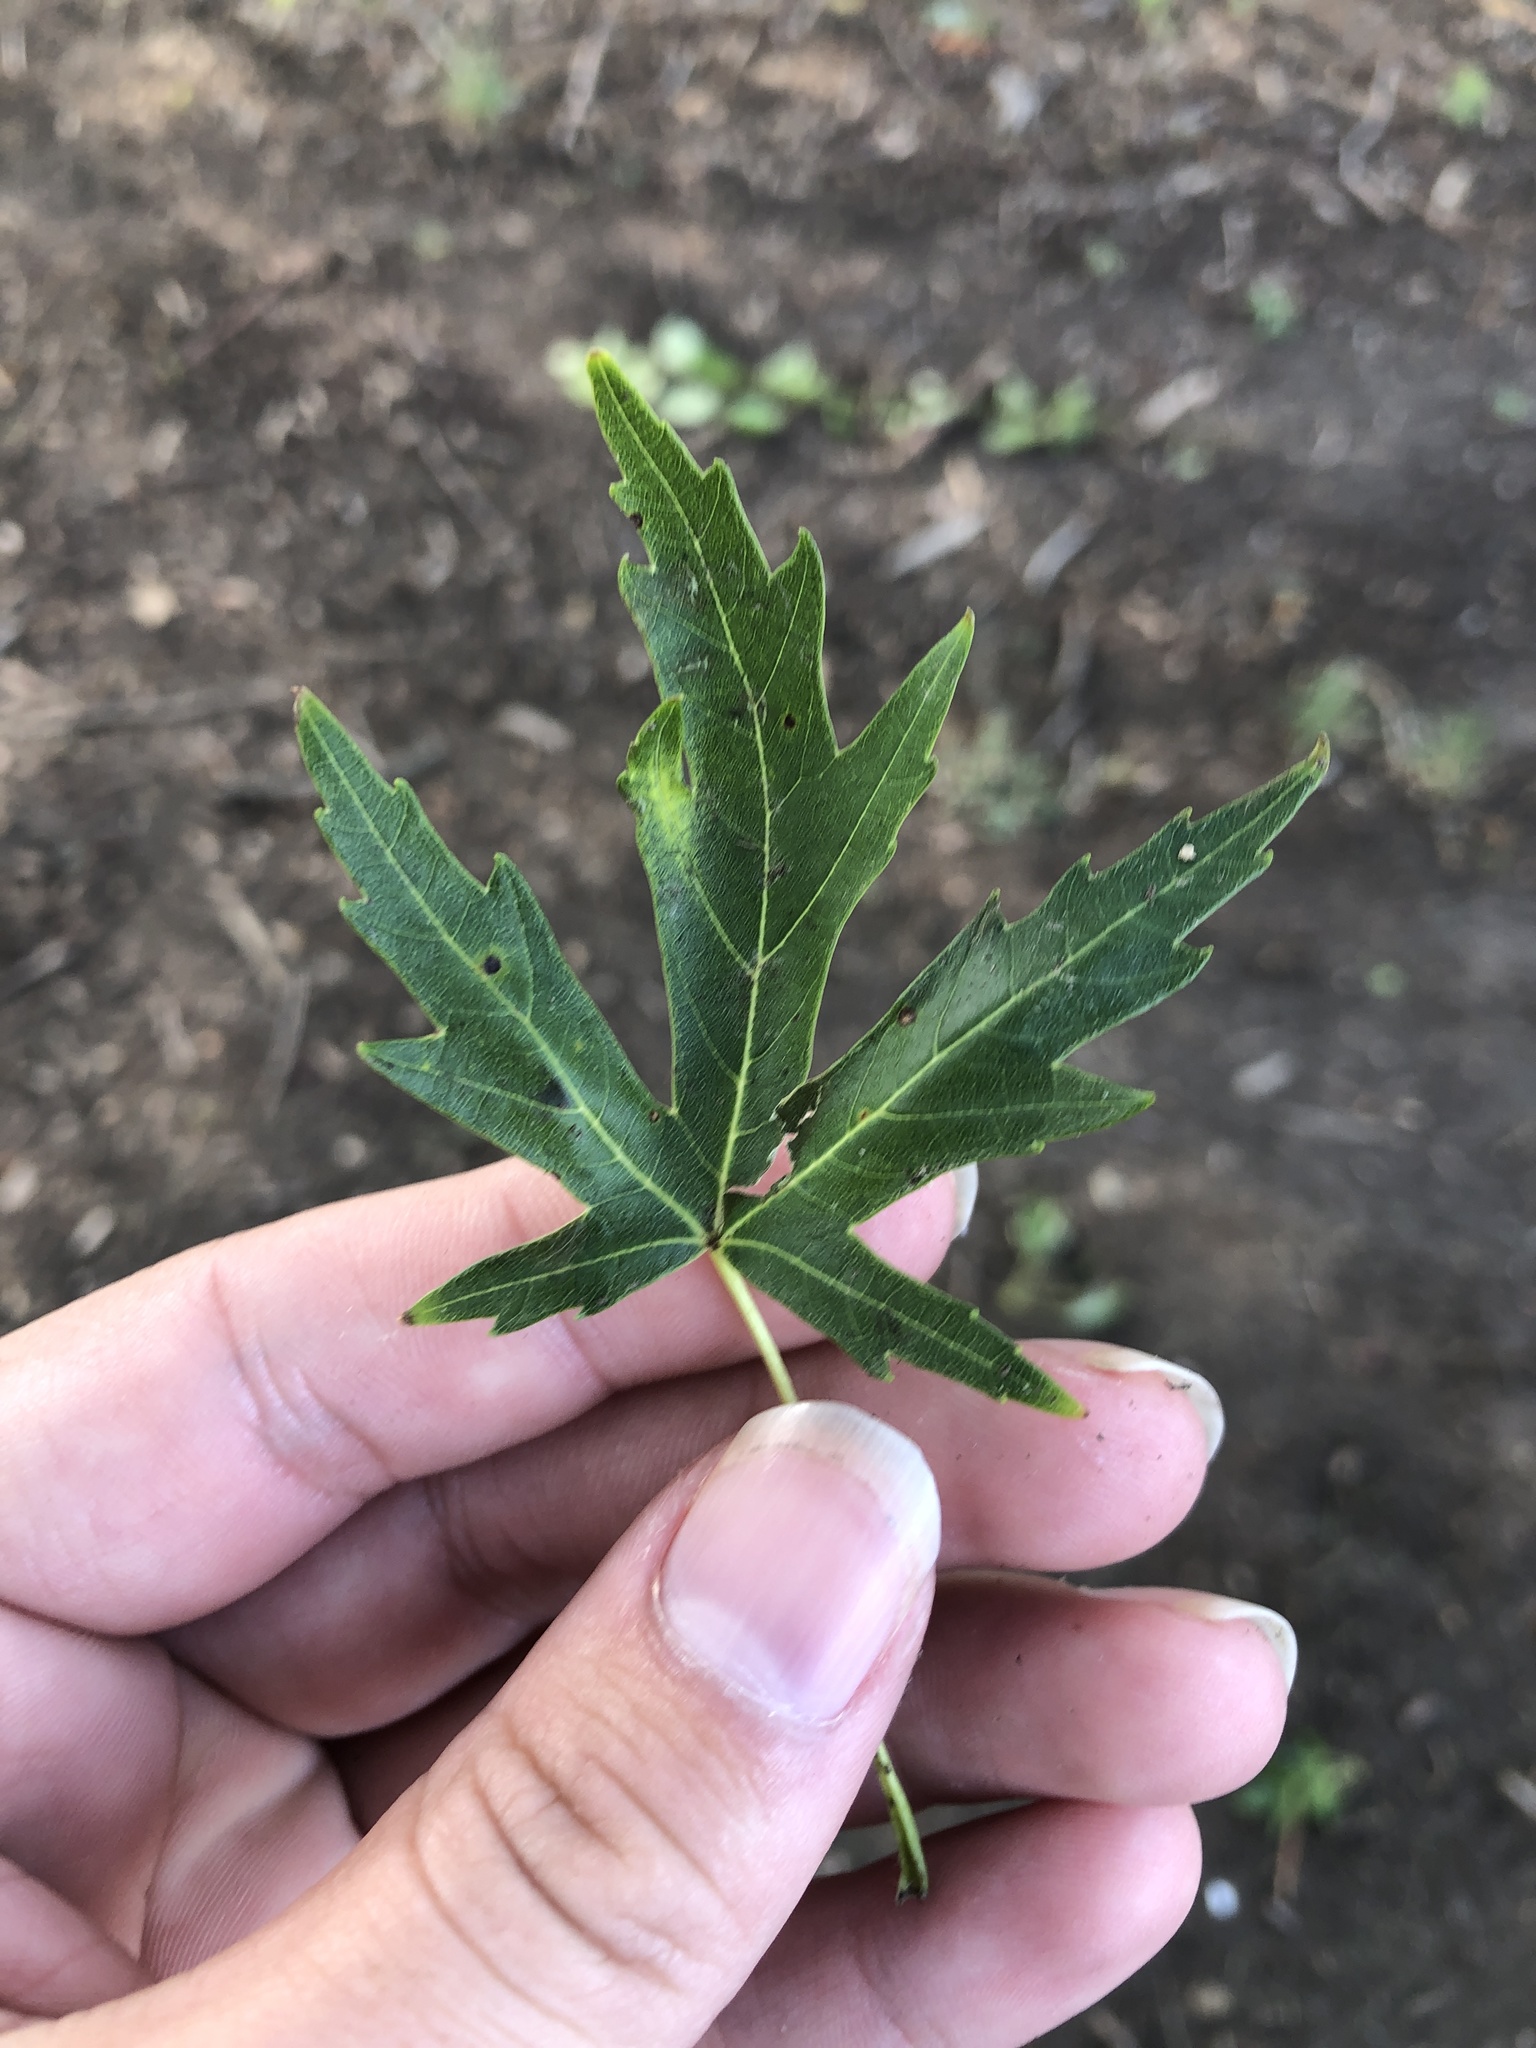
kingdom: Plantae
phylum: Tracheophyta
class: Magnoliopsida
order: Sapindales
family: Sapindaceae
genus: Acer
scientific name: Acer saccharinum
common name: Silver maple
